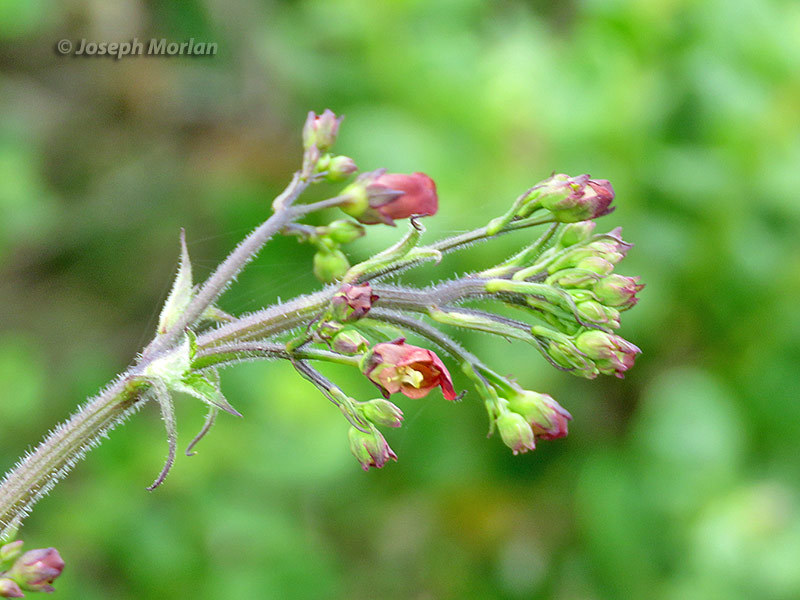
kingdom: Plantae
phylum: Tracheophyta
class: Magnoliopsida
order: Lamiales
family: Scrophulariaceae
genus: Scrophularia
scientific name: Scrophularia californica
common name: California figwort
